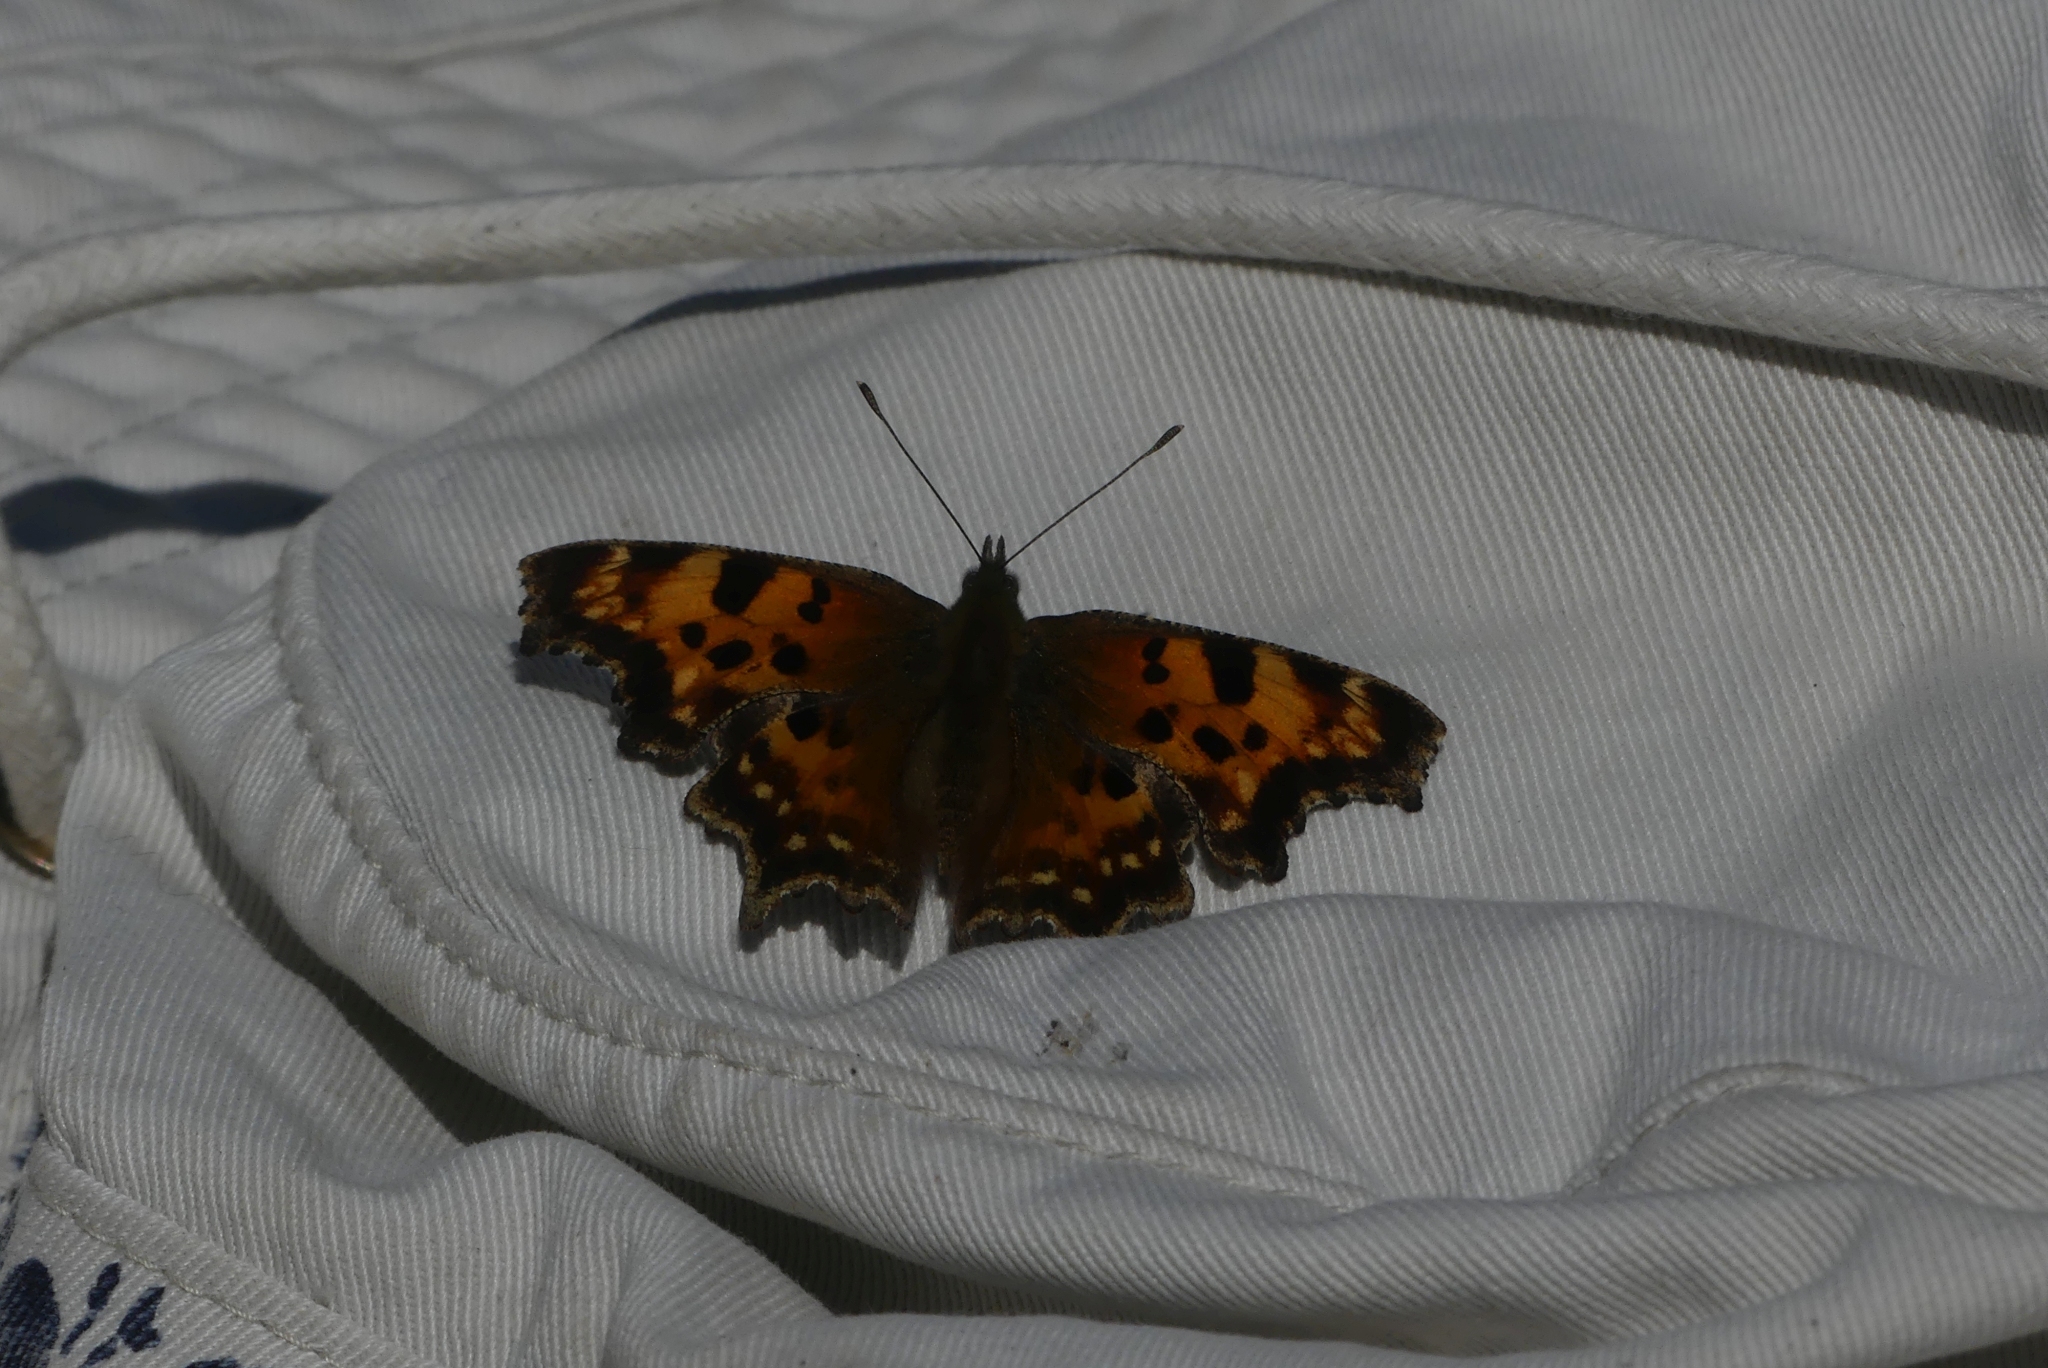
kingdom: Animalia
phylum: Arthropoda
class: Insecta
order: Lepidoptera
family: Nymphalidae
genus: Polygonia
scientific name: Polygonia faunus
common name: Green comma
